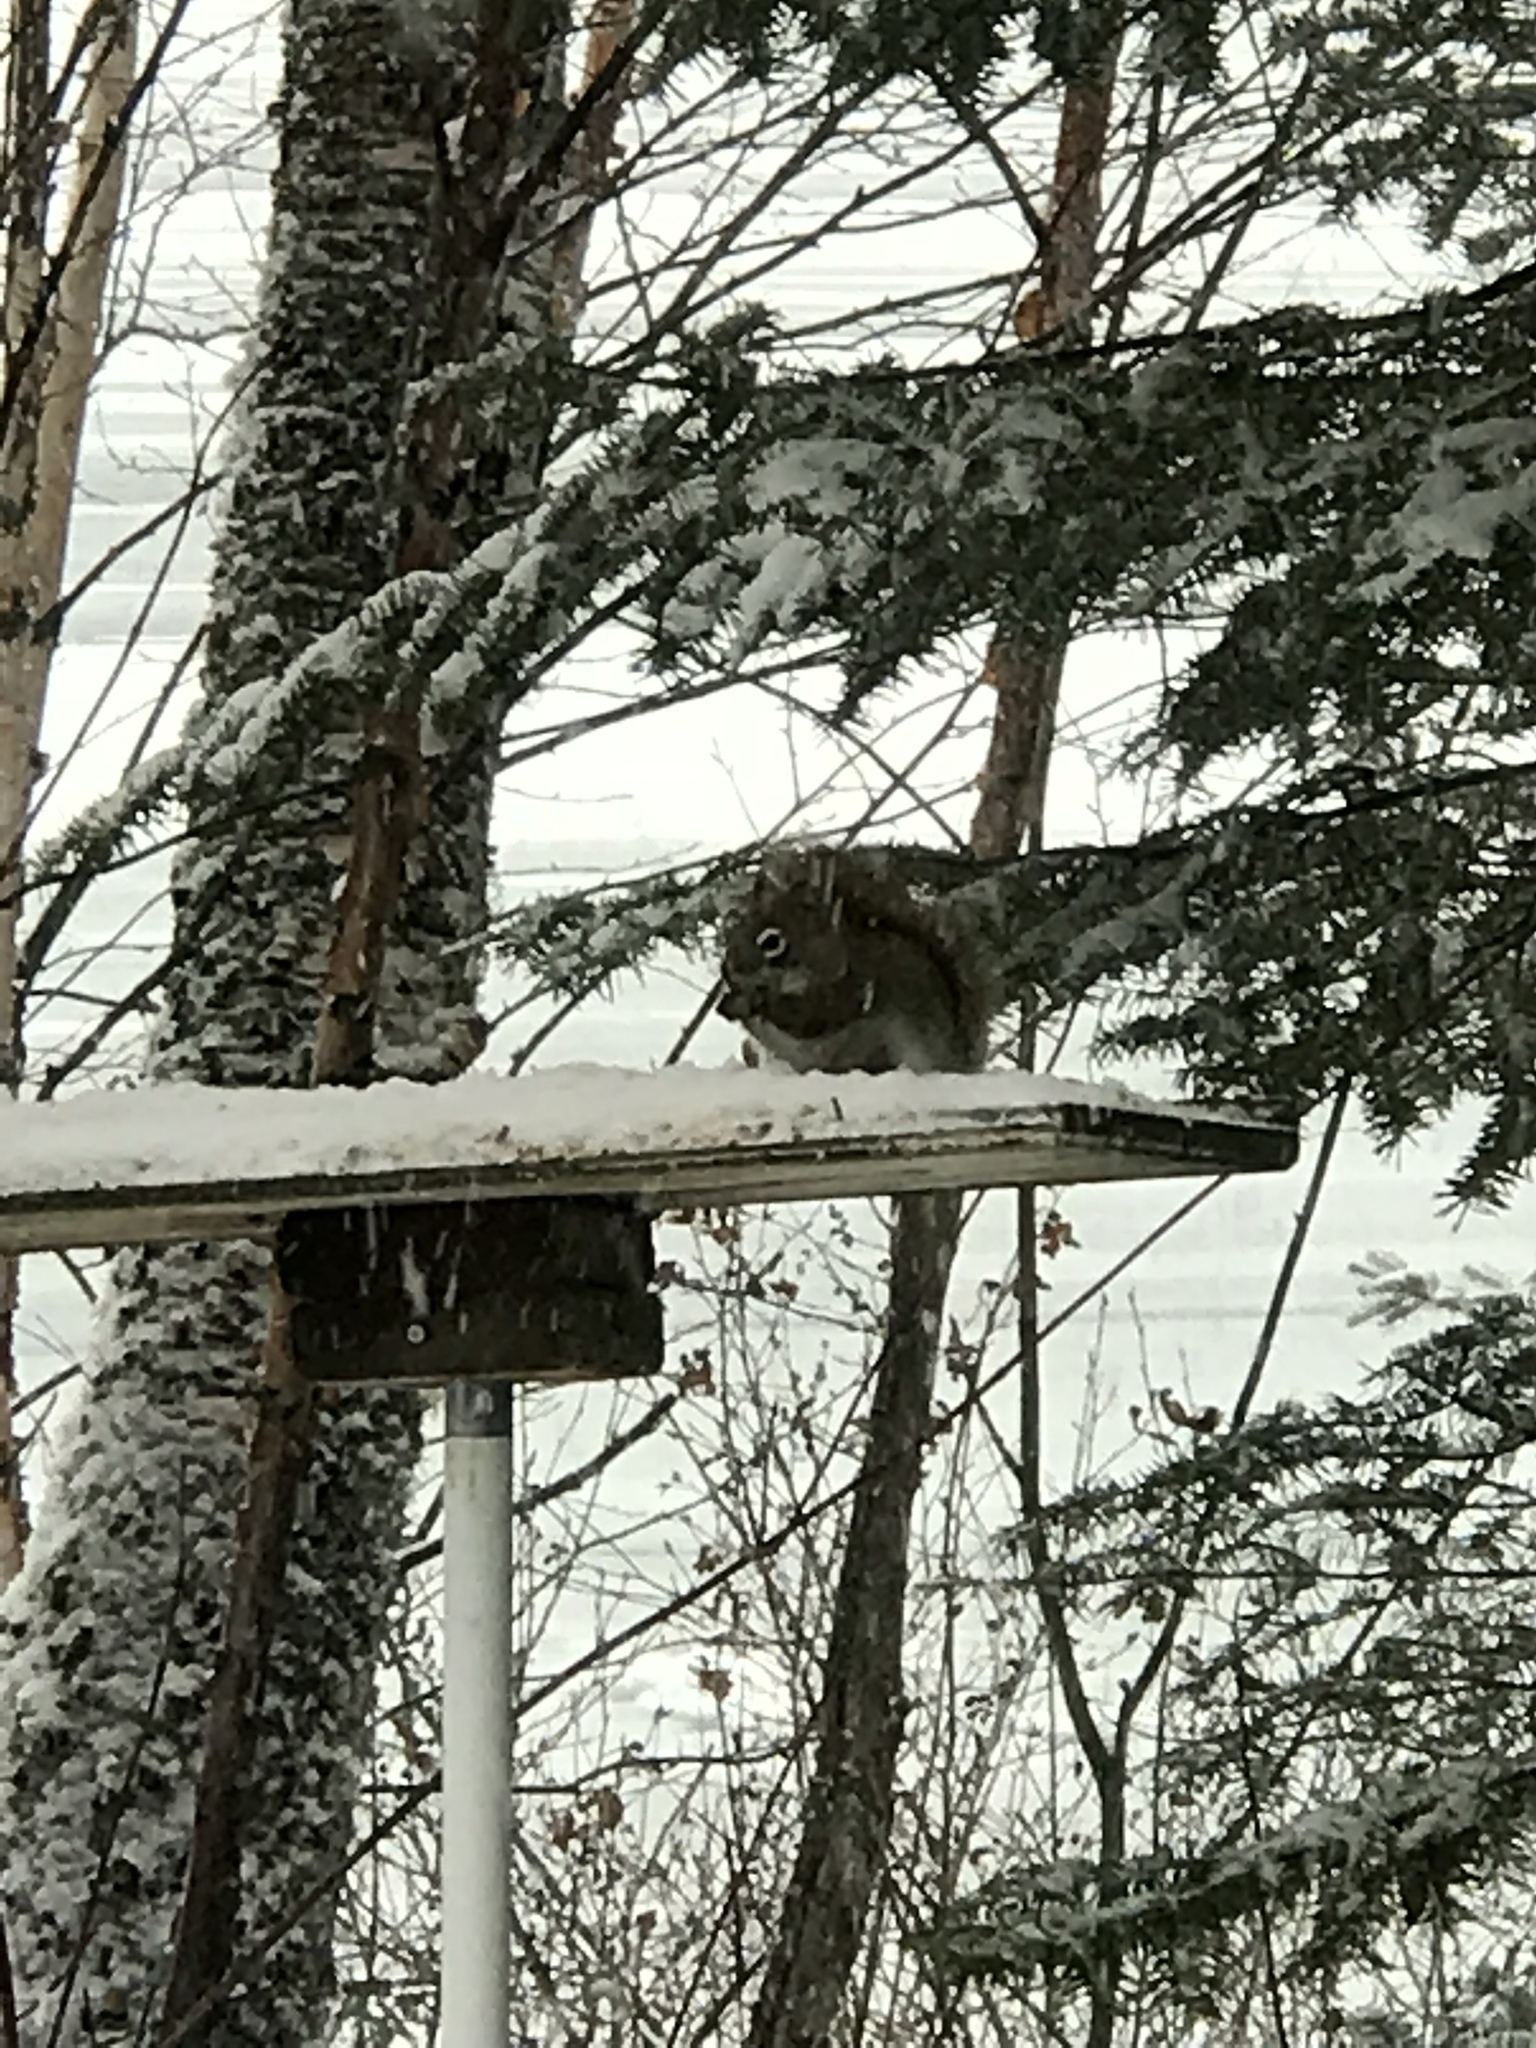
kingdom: Animalia
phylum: Chordata
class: Mammalia
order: Rodentia
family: Sciuridae
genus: Tamiasciurus
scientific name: Tamiasciurus hudsonicus
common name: Red squirrel
